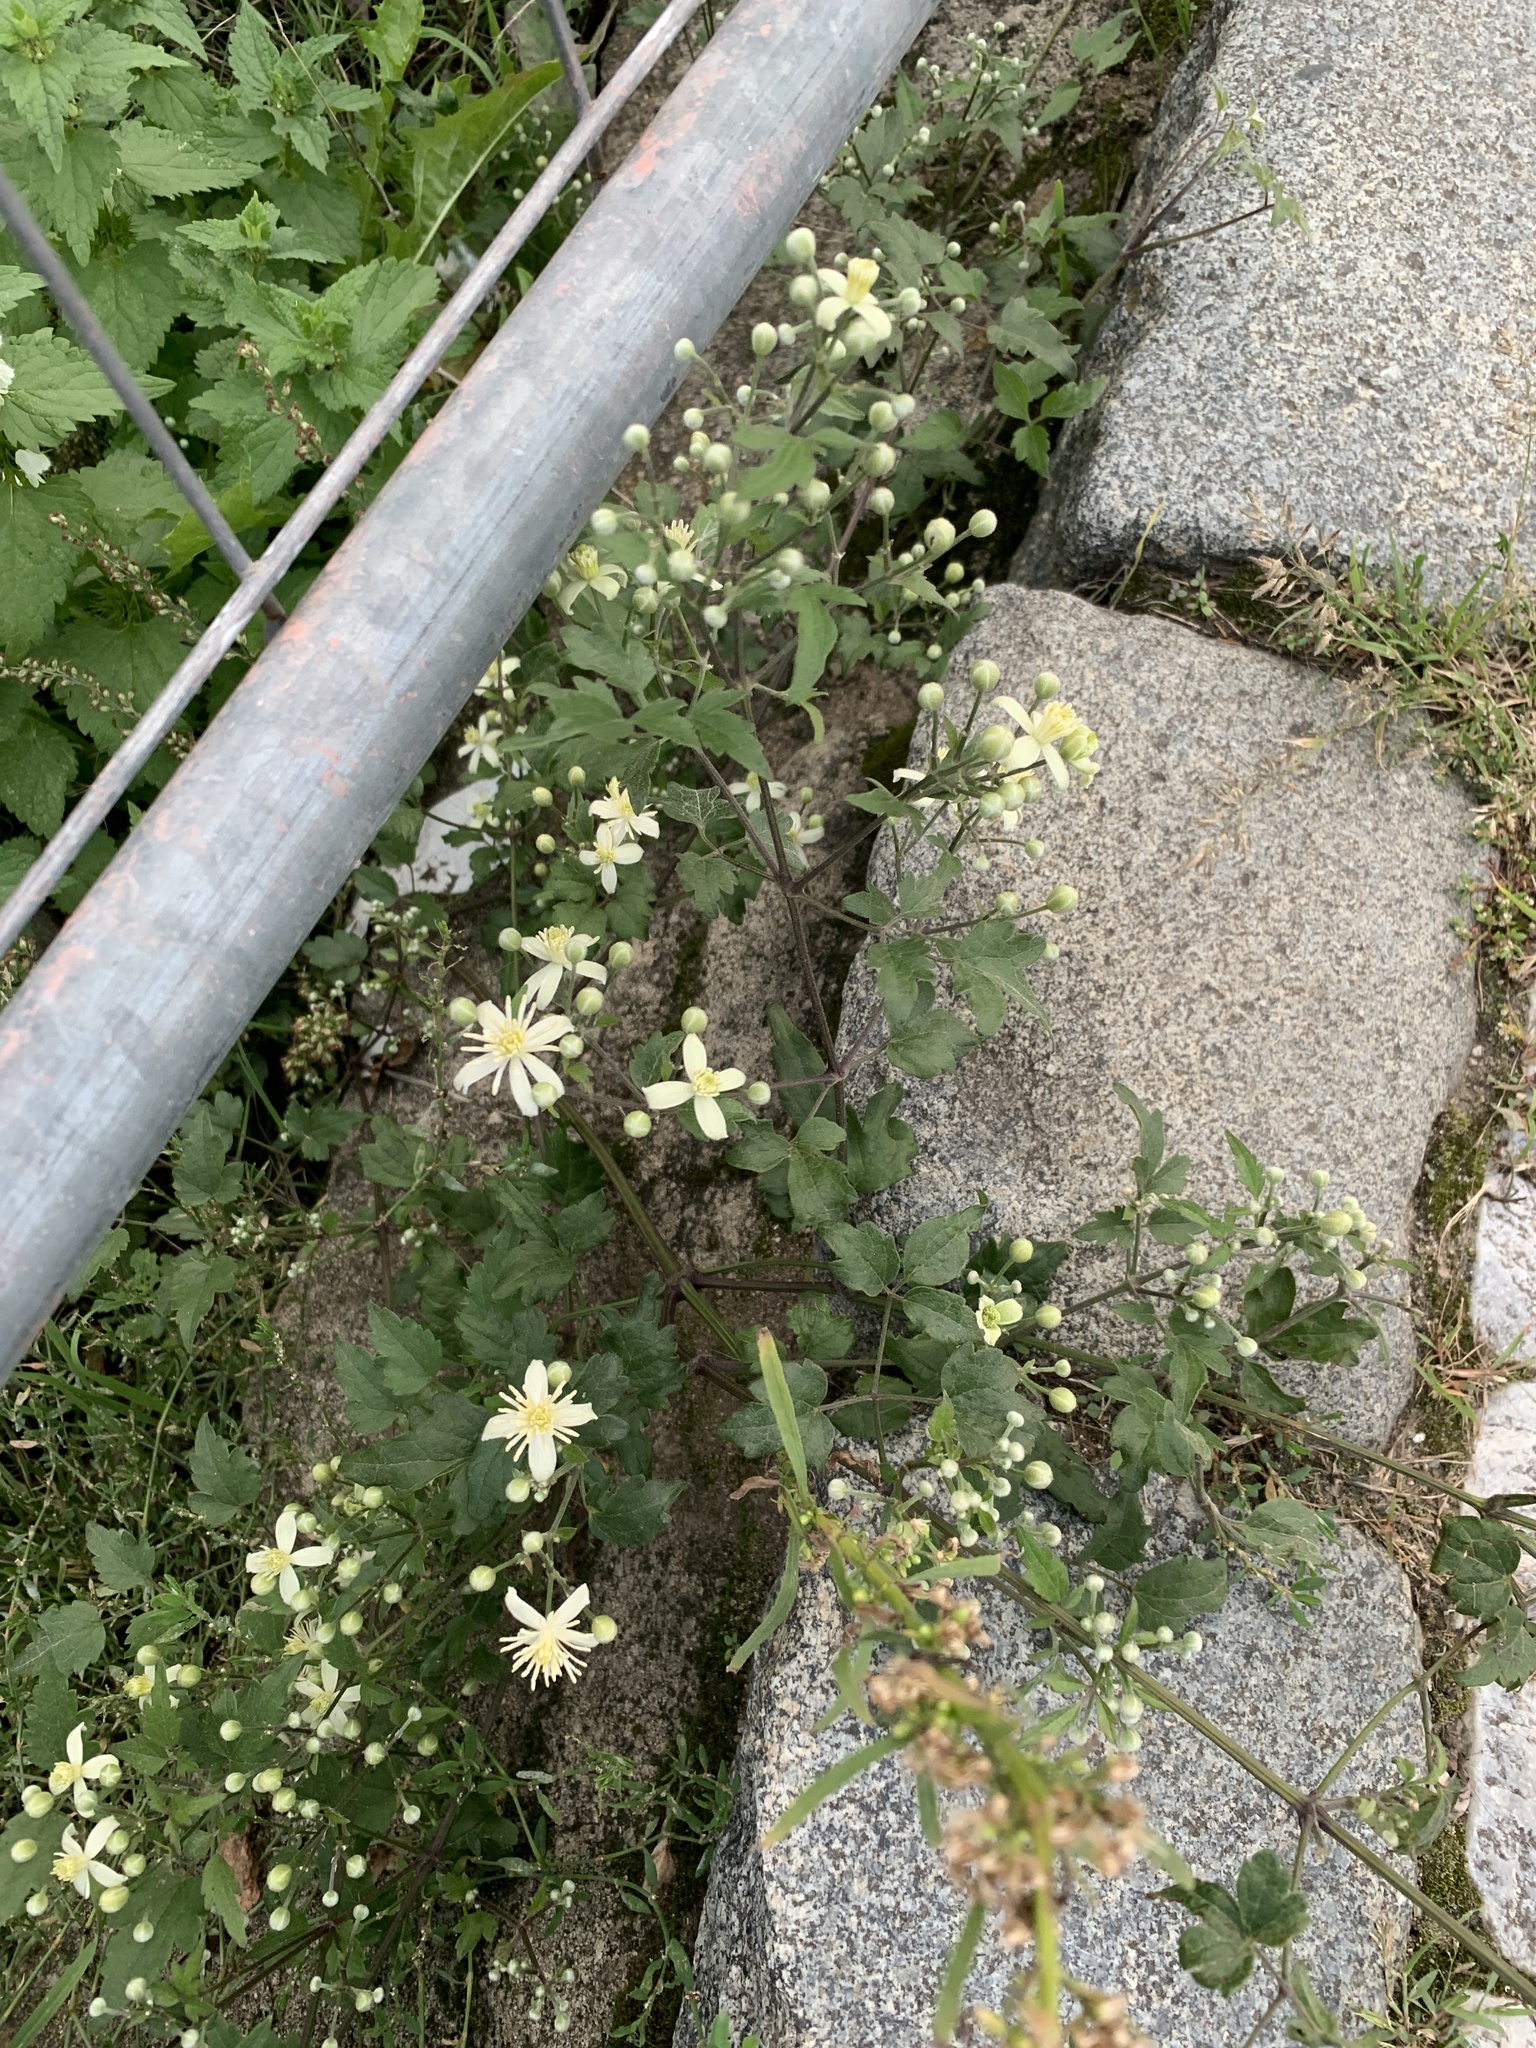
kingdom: Plantae
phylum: Tracheophyta
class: Magnoliopsida
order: Ranunculales
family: Ranunculaceae
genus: Clematis
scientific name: Clematis vitalba
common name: Evergreen clematis
